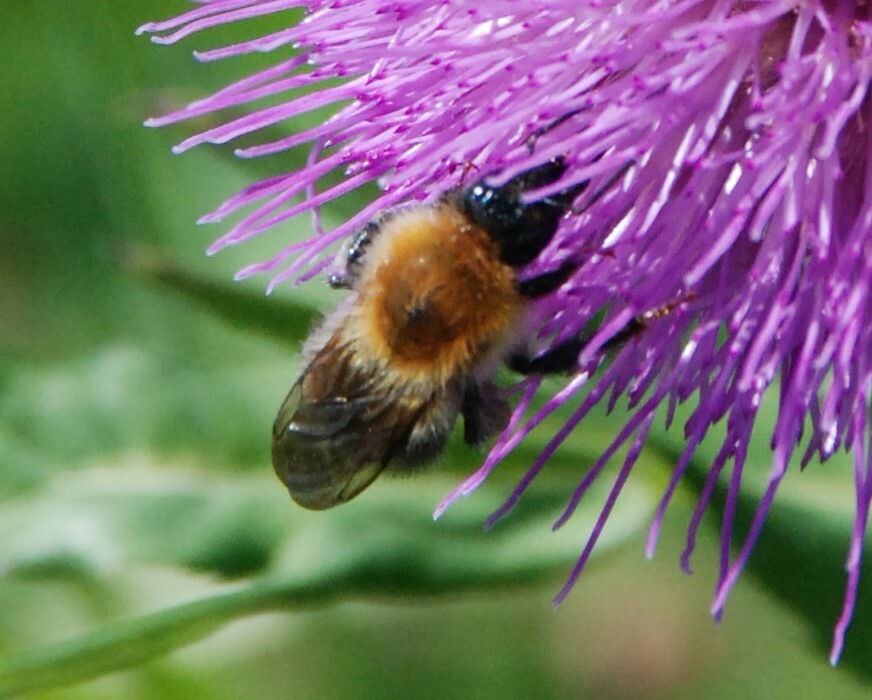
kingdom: Animalia
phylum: Arthropoda
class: Insecta
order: Hymenoptera
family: Apidae
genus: Bombus
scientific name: Bombus
